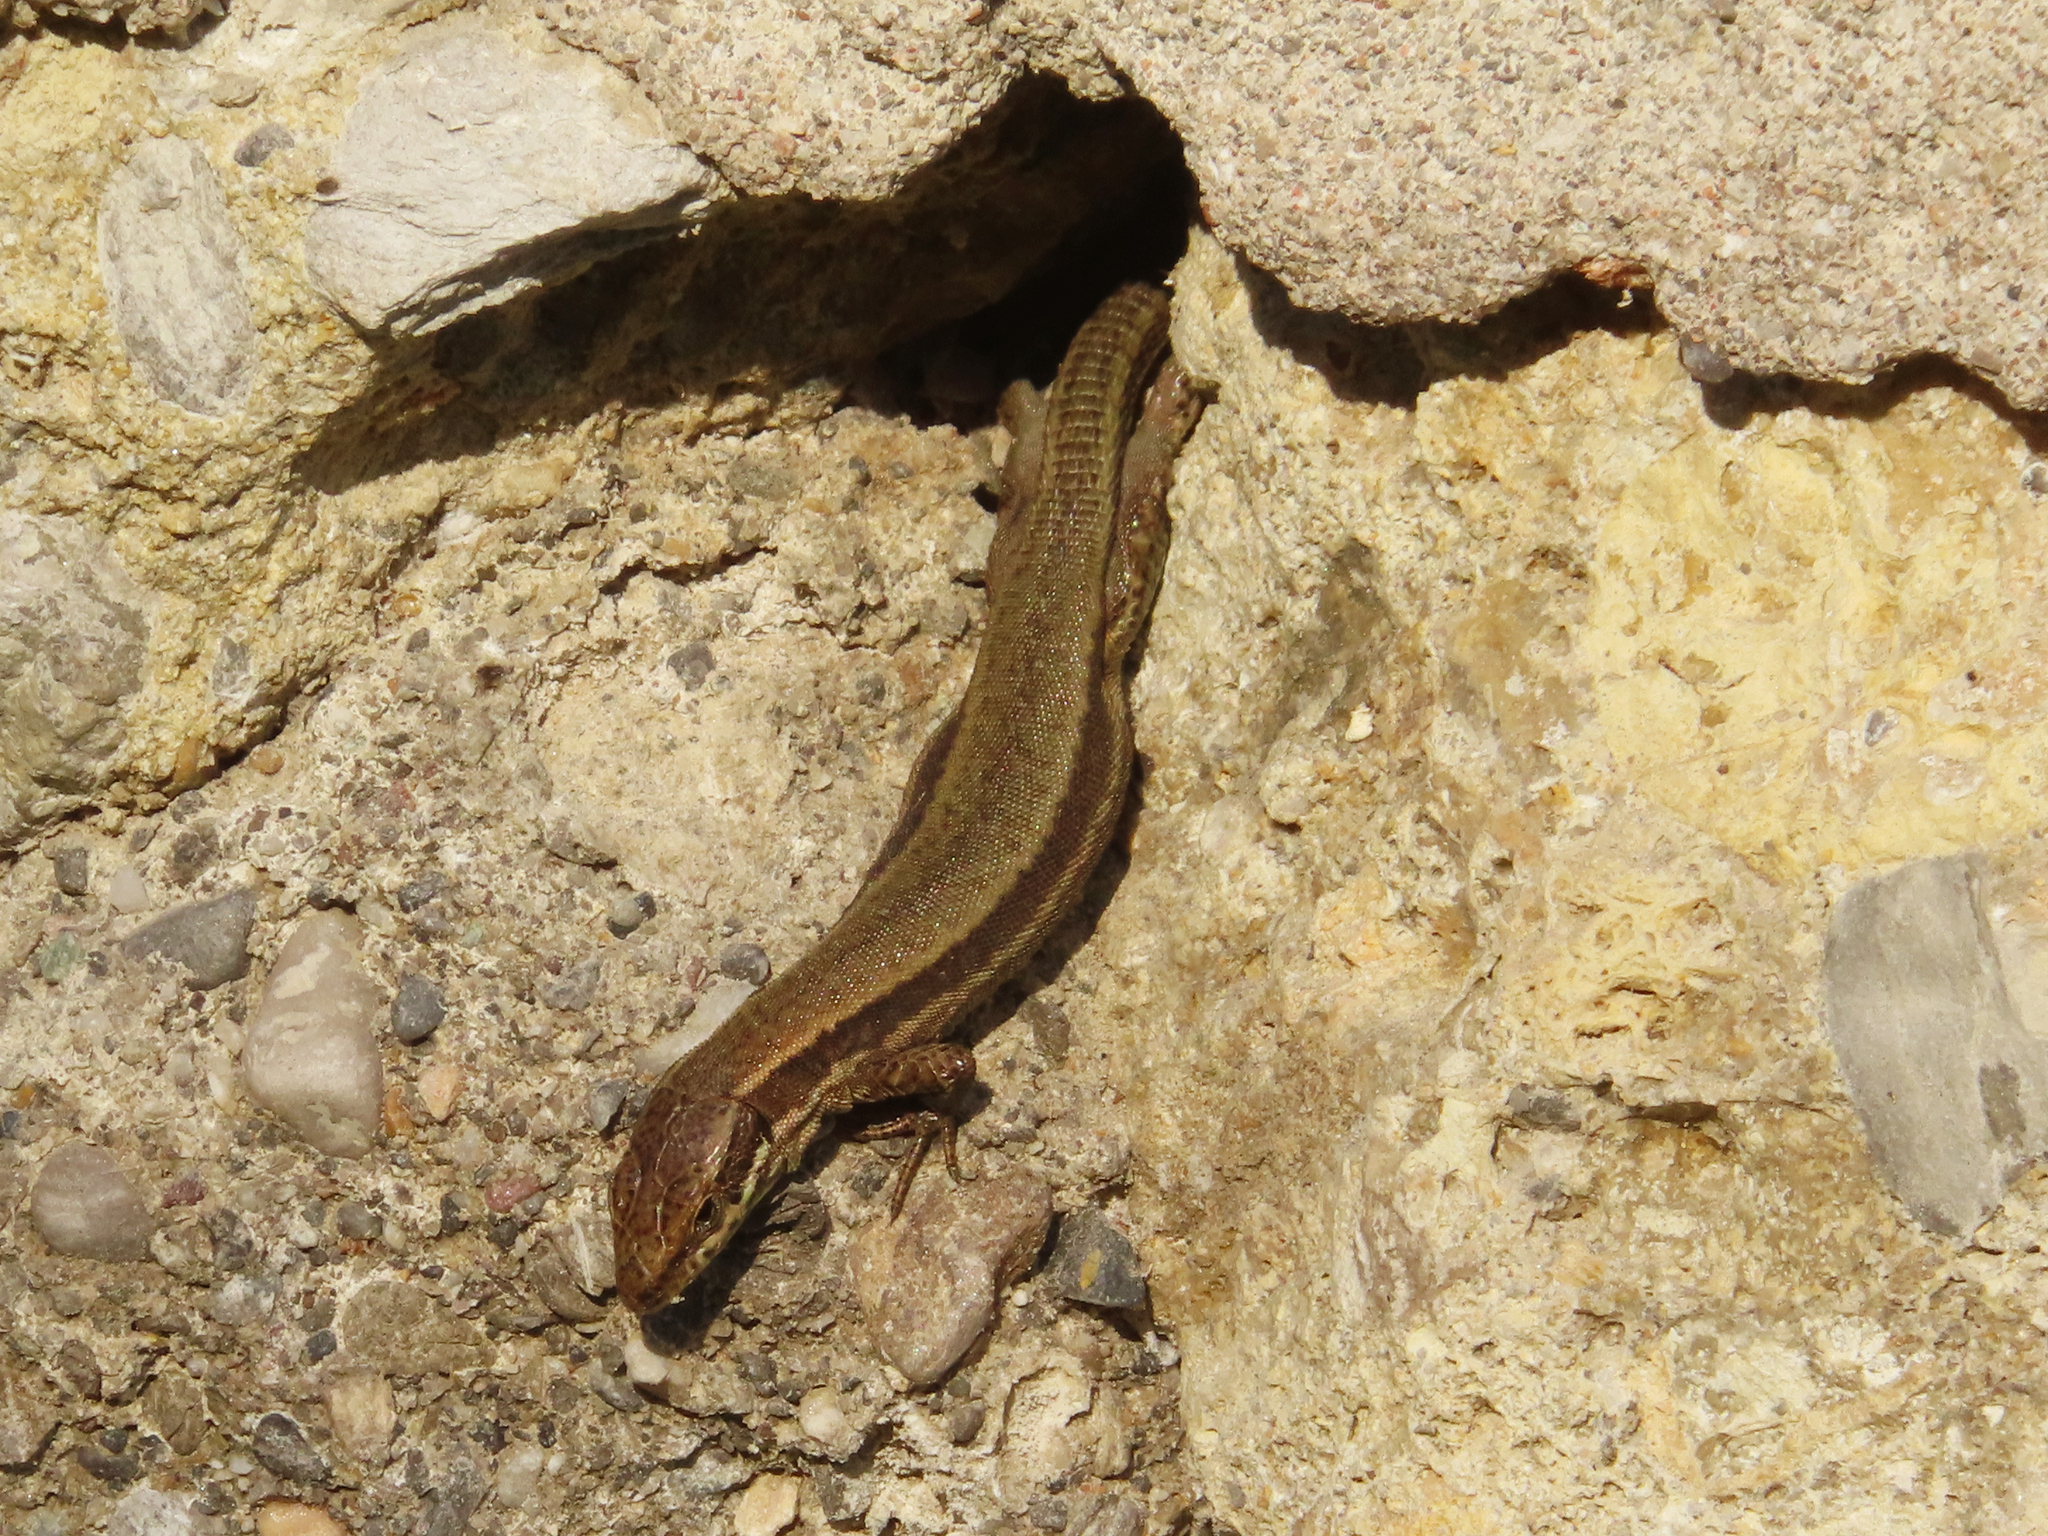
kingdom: Animalia
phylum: Chordata
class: Squamata
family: Lacertidae
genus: Podarcis
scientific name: Podarcis muralis
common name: Common wall lizard
